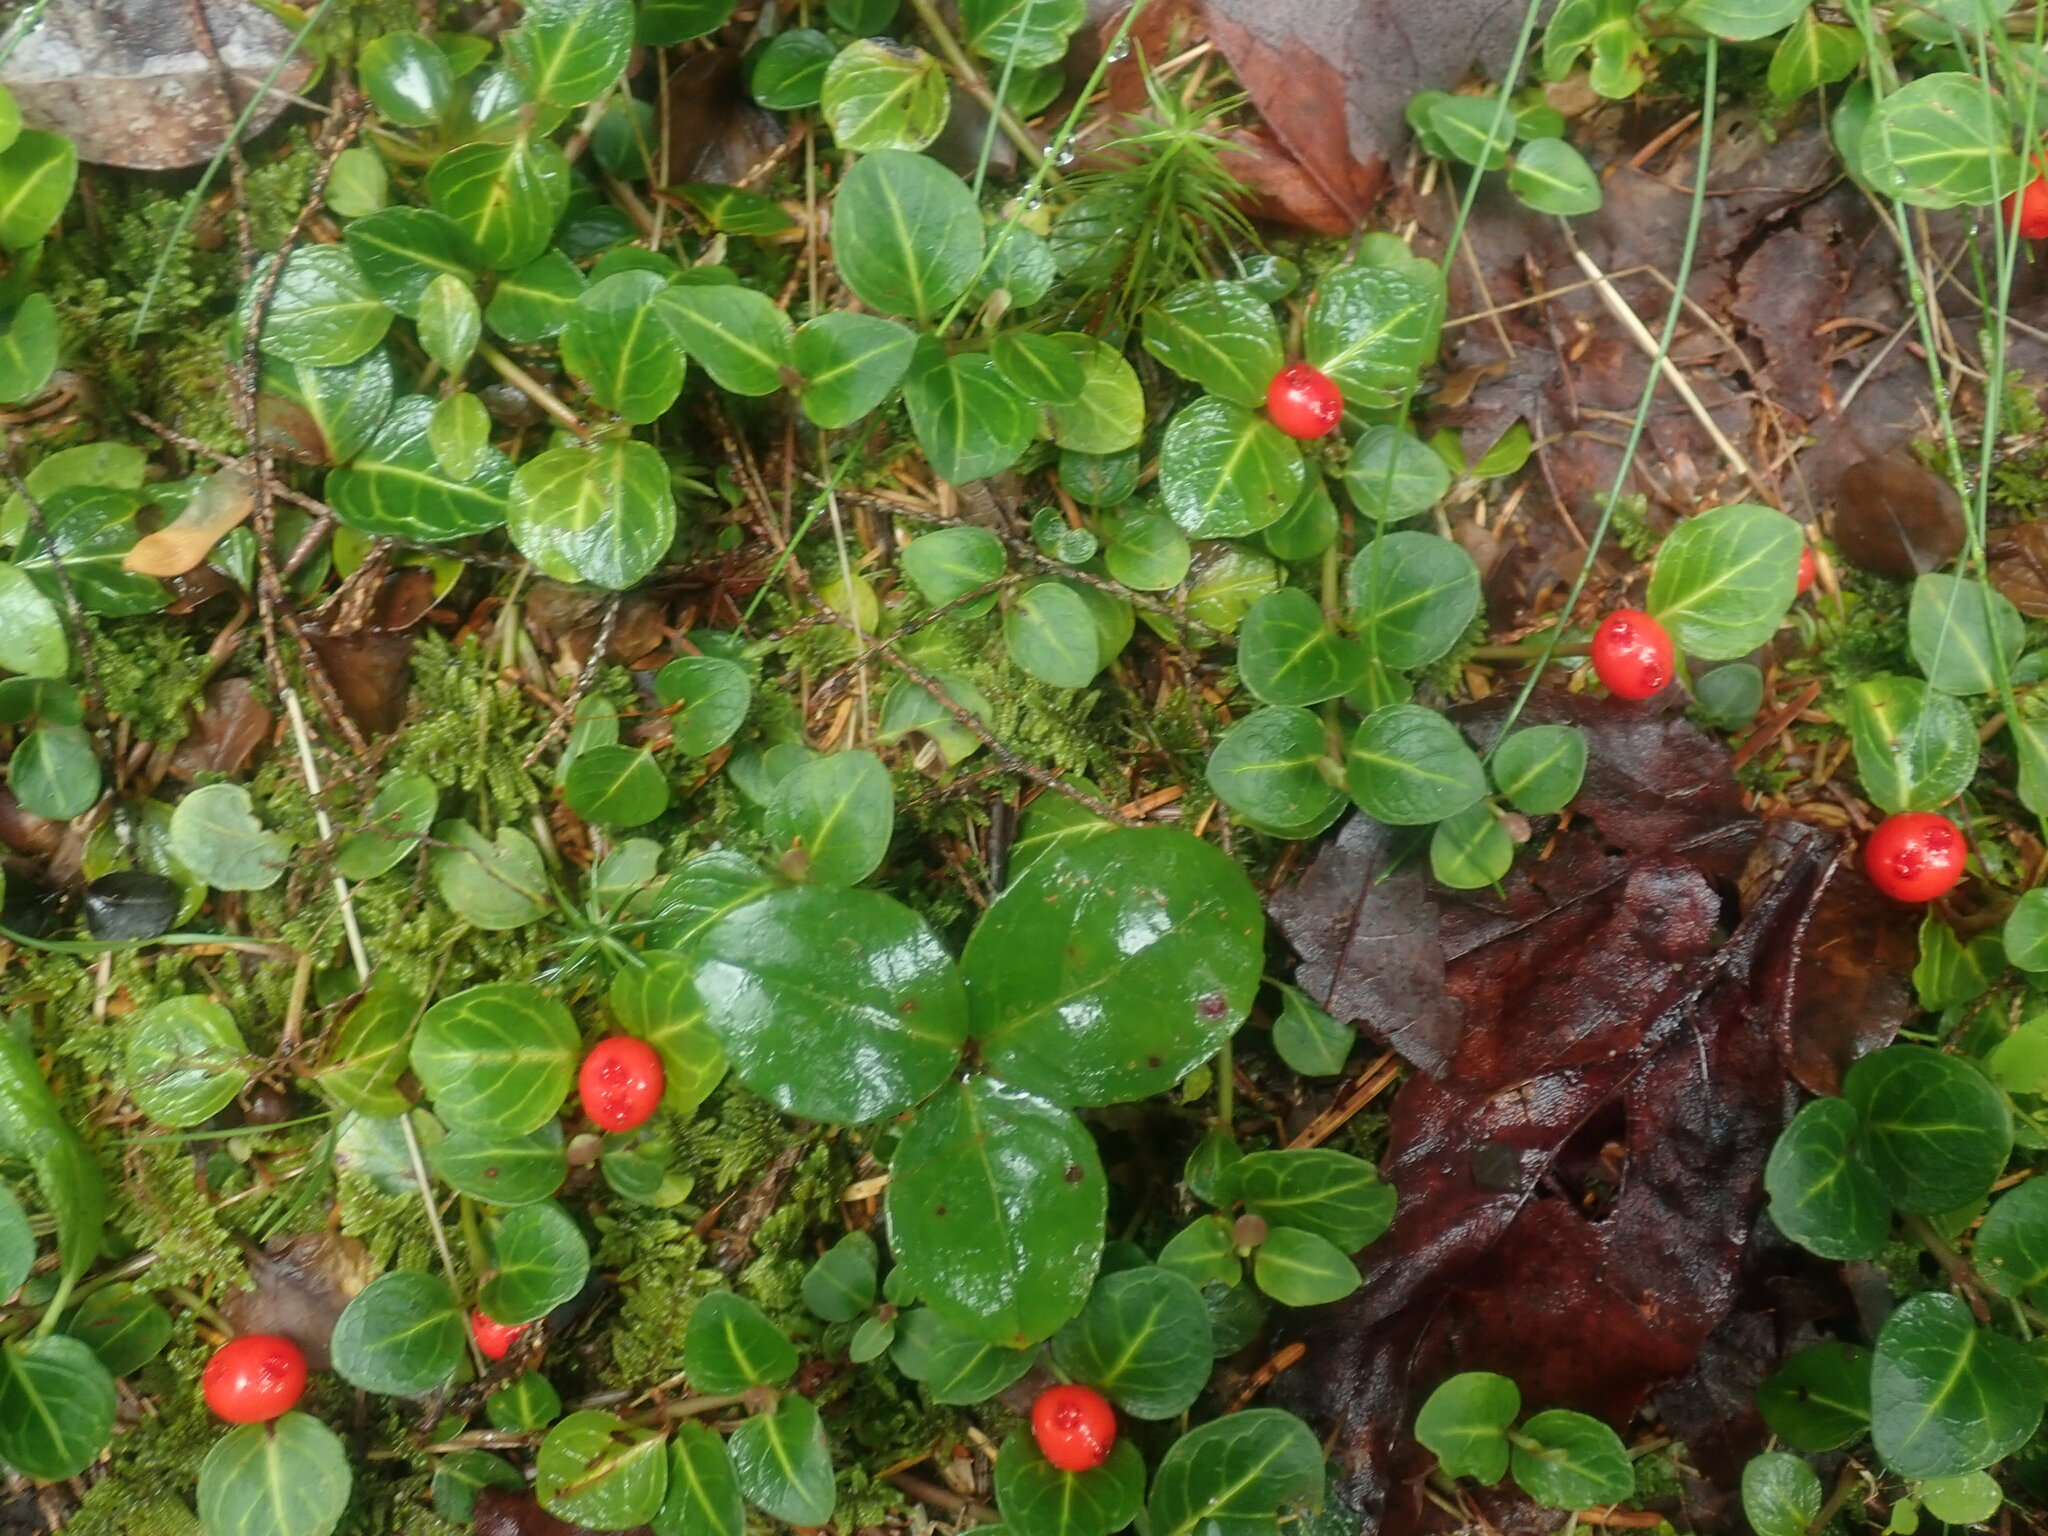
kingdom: Plantae
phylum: Tracheophyta
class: Magnoliopsida
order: Gentianales
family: Rubiaceae
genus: Mitchella
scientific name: Mitchella repens
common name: Partridge-berry
